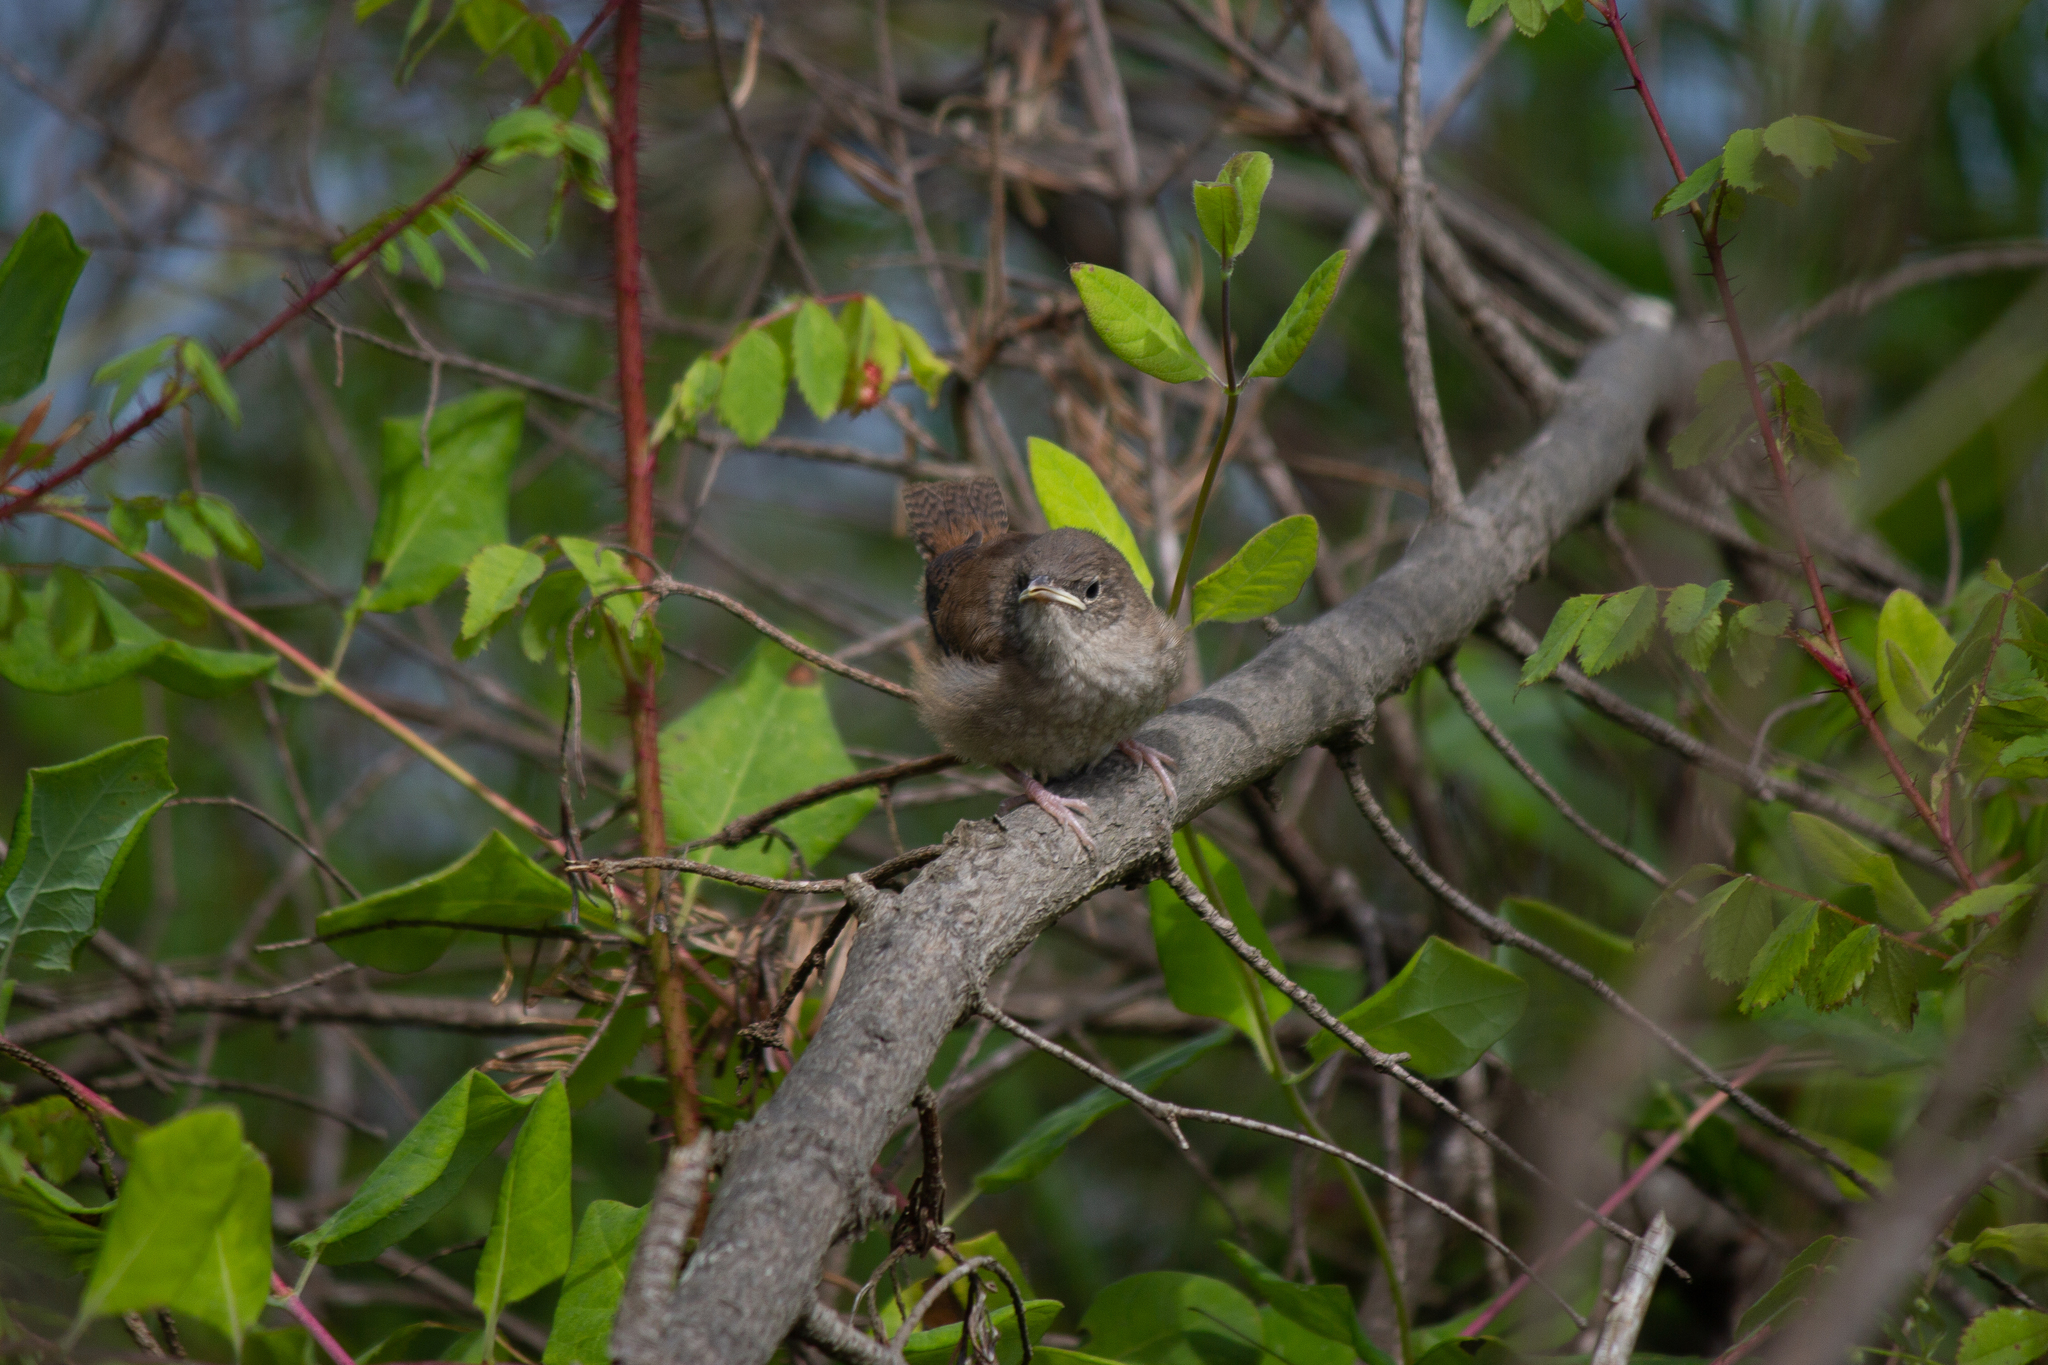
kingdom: Animalia
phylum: Chordata
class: Aves
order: Passeriformes
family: Troglodytidae
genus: Troglodytes
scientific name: Troglodytes aedon
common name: House wren
